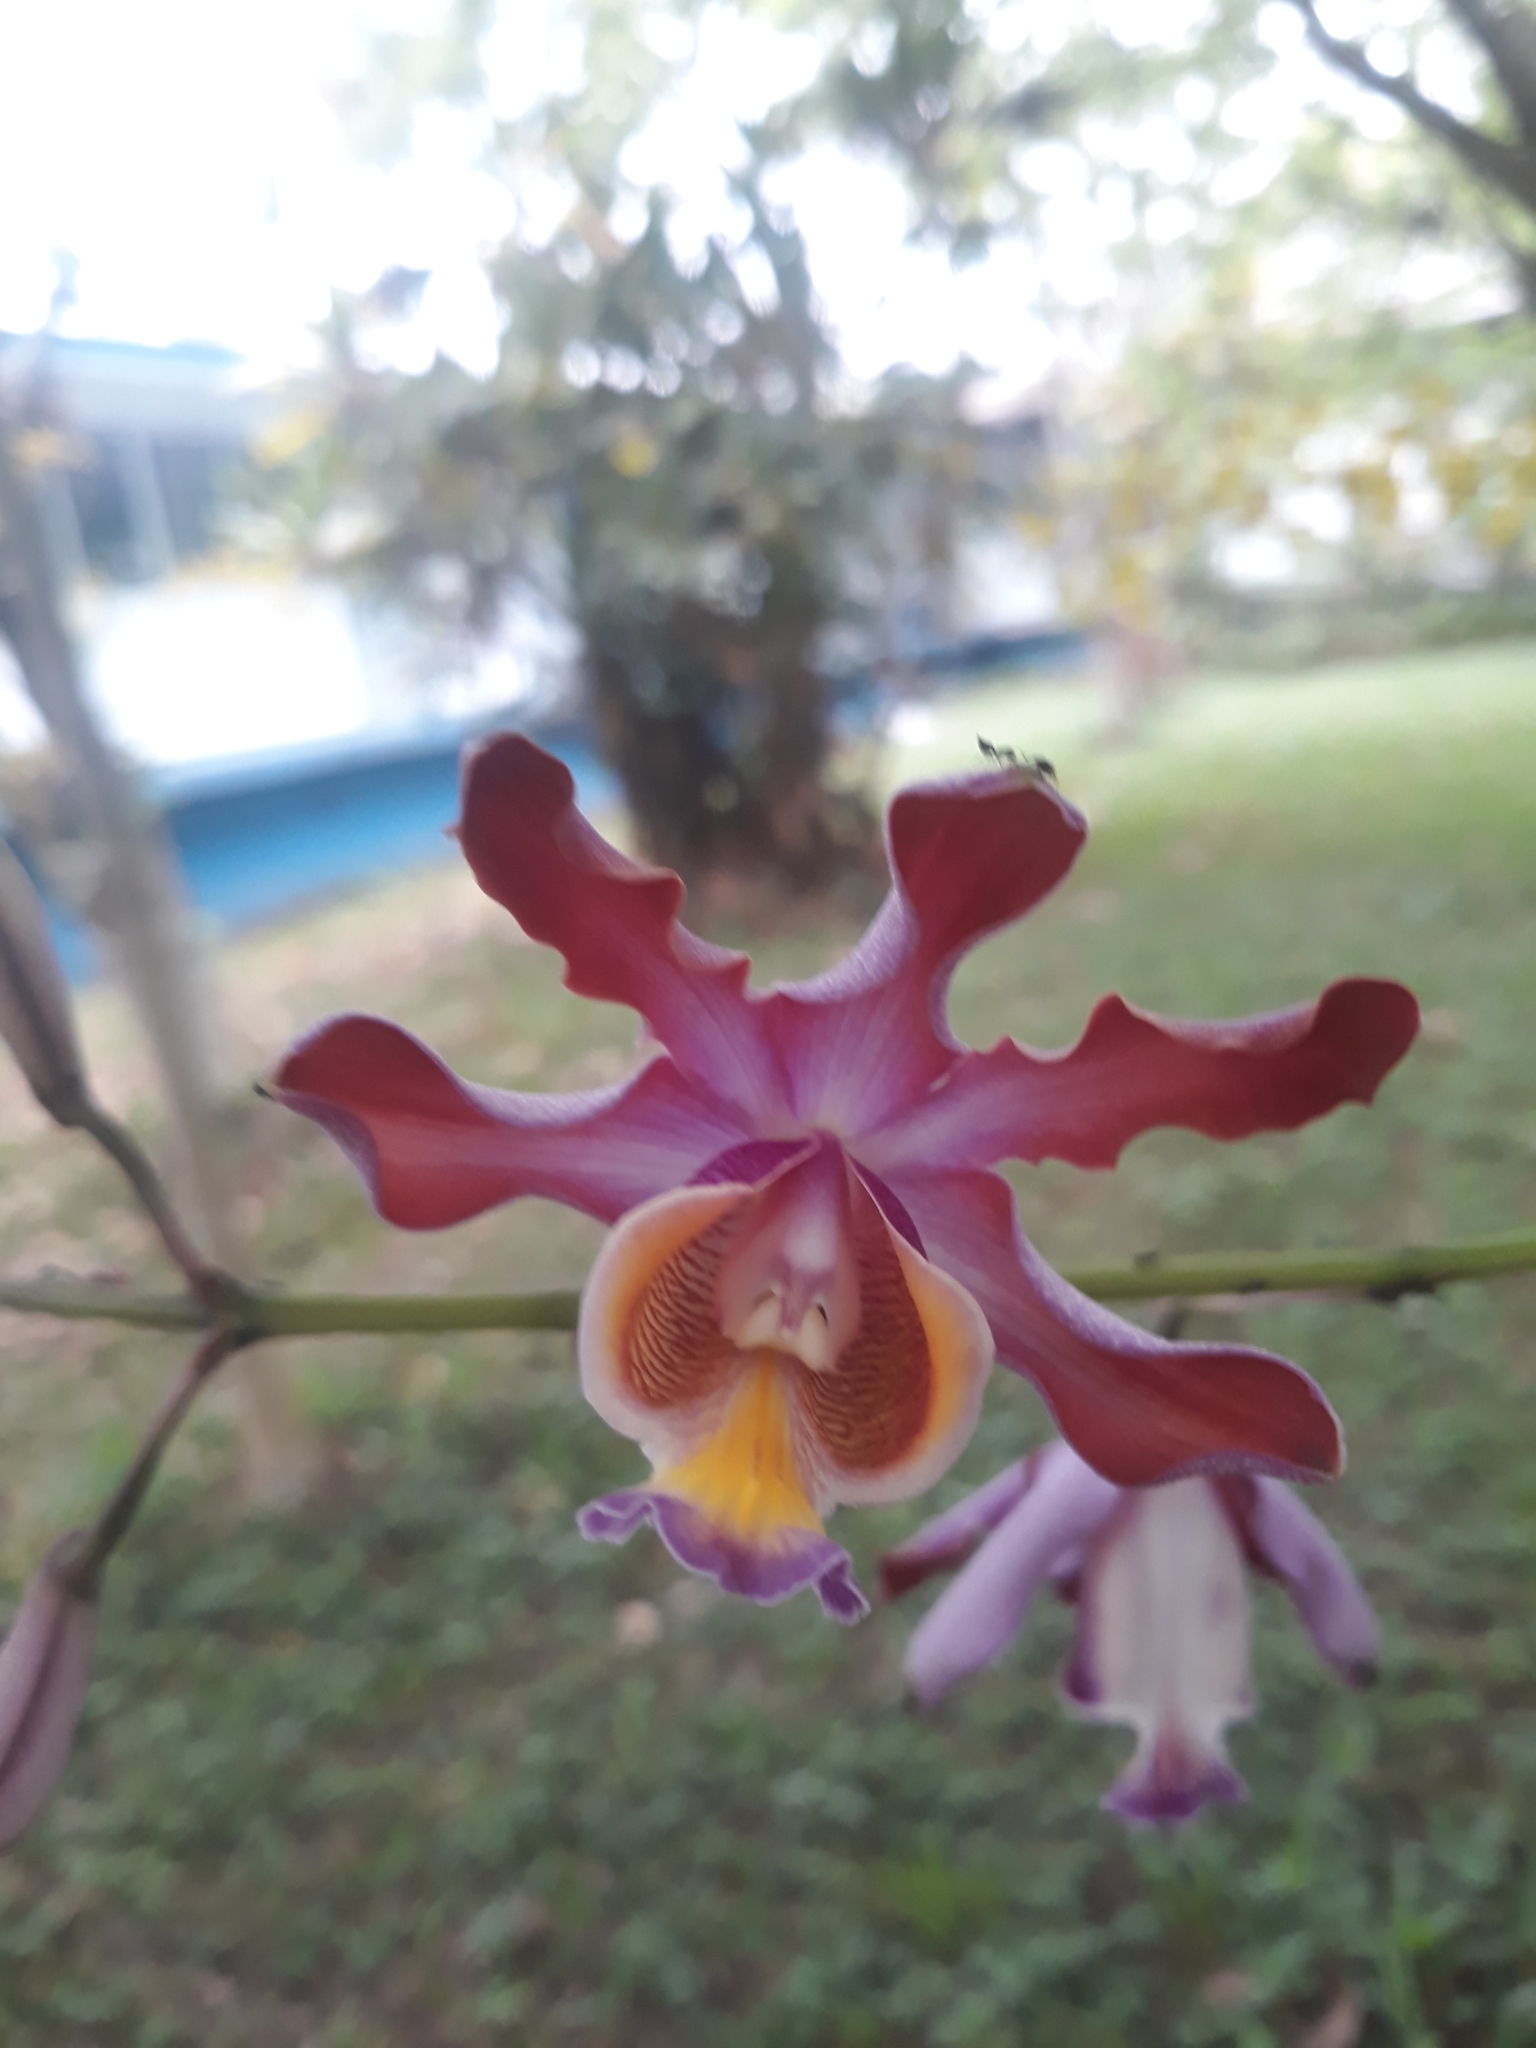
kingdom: Plantae
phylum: Tracheophyta
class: Liliopsida
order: Asparagales
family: Orchidaceae
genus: Myrmecophila
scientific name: Myrmecophila grandiflora
